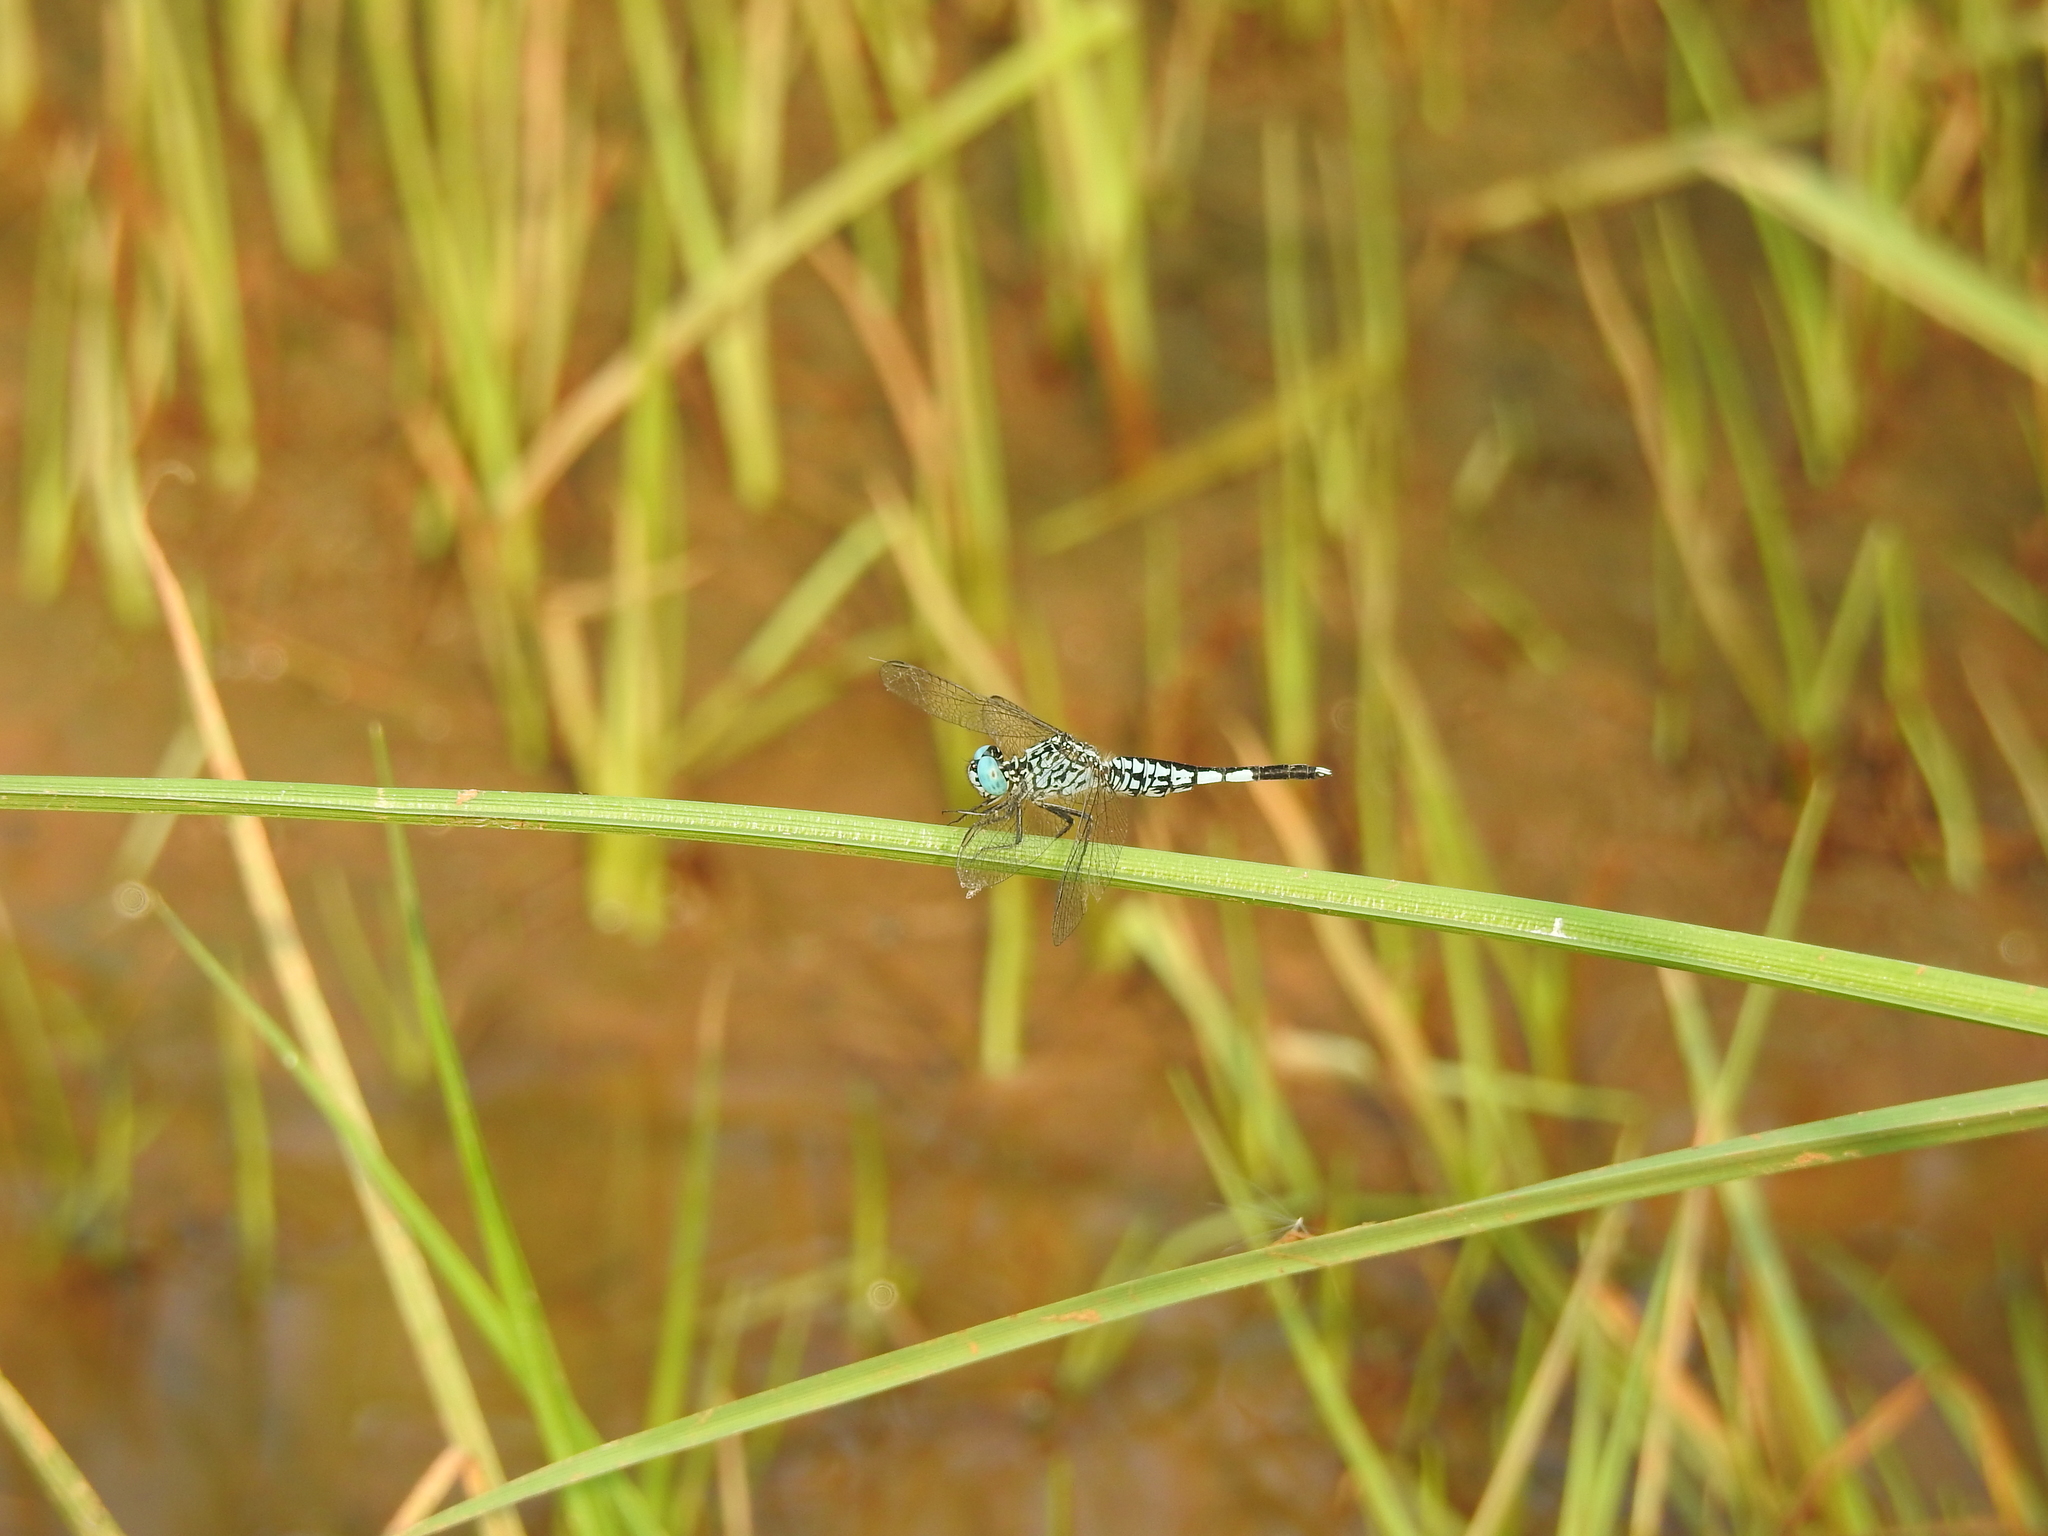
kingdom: Animalia
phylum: Arthropoda
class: Insecta
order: Odonata
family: Libellulidae
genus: Acisoma
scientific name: Acisoma panorpoides
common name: Asian pintail
